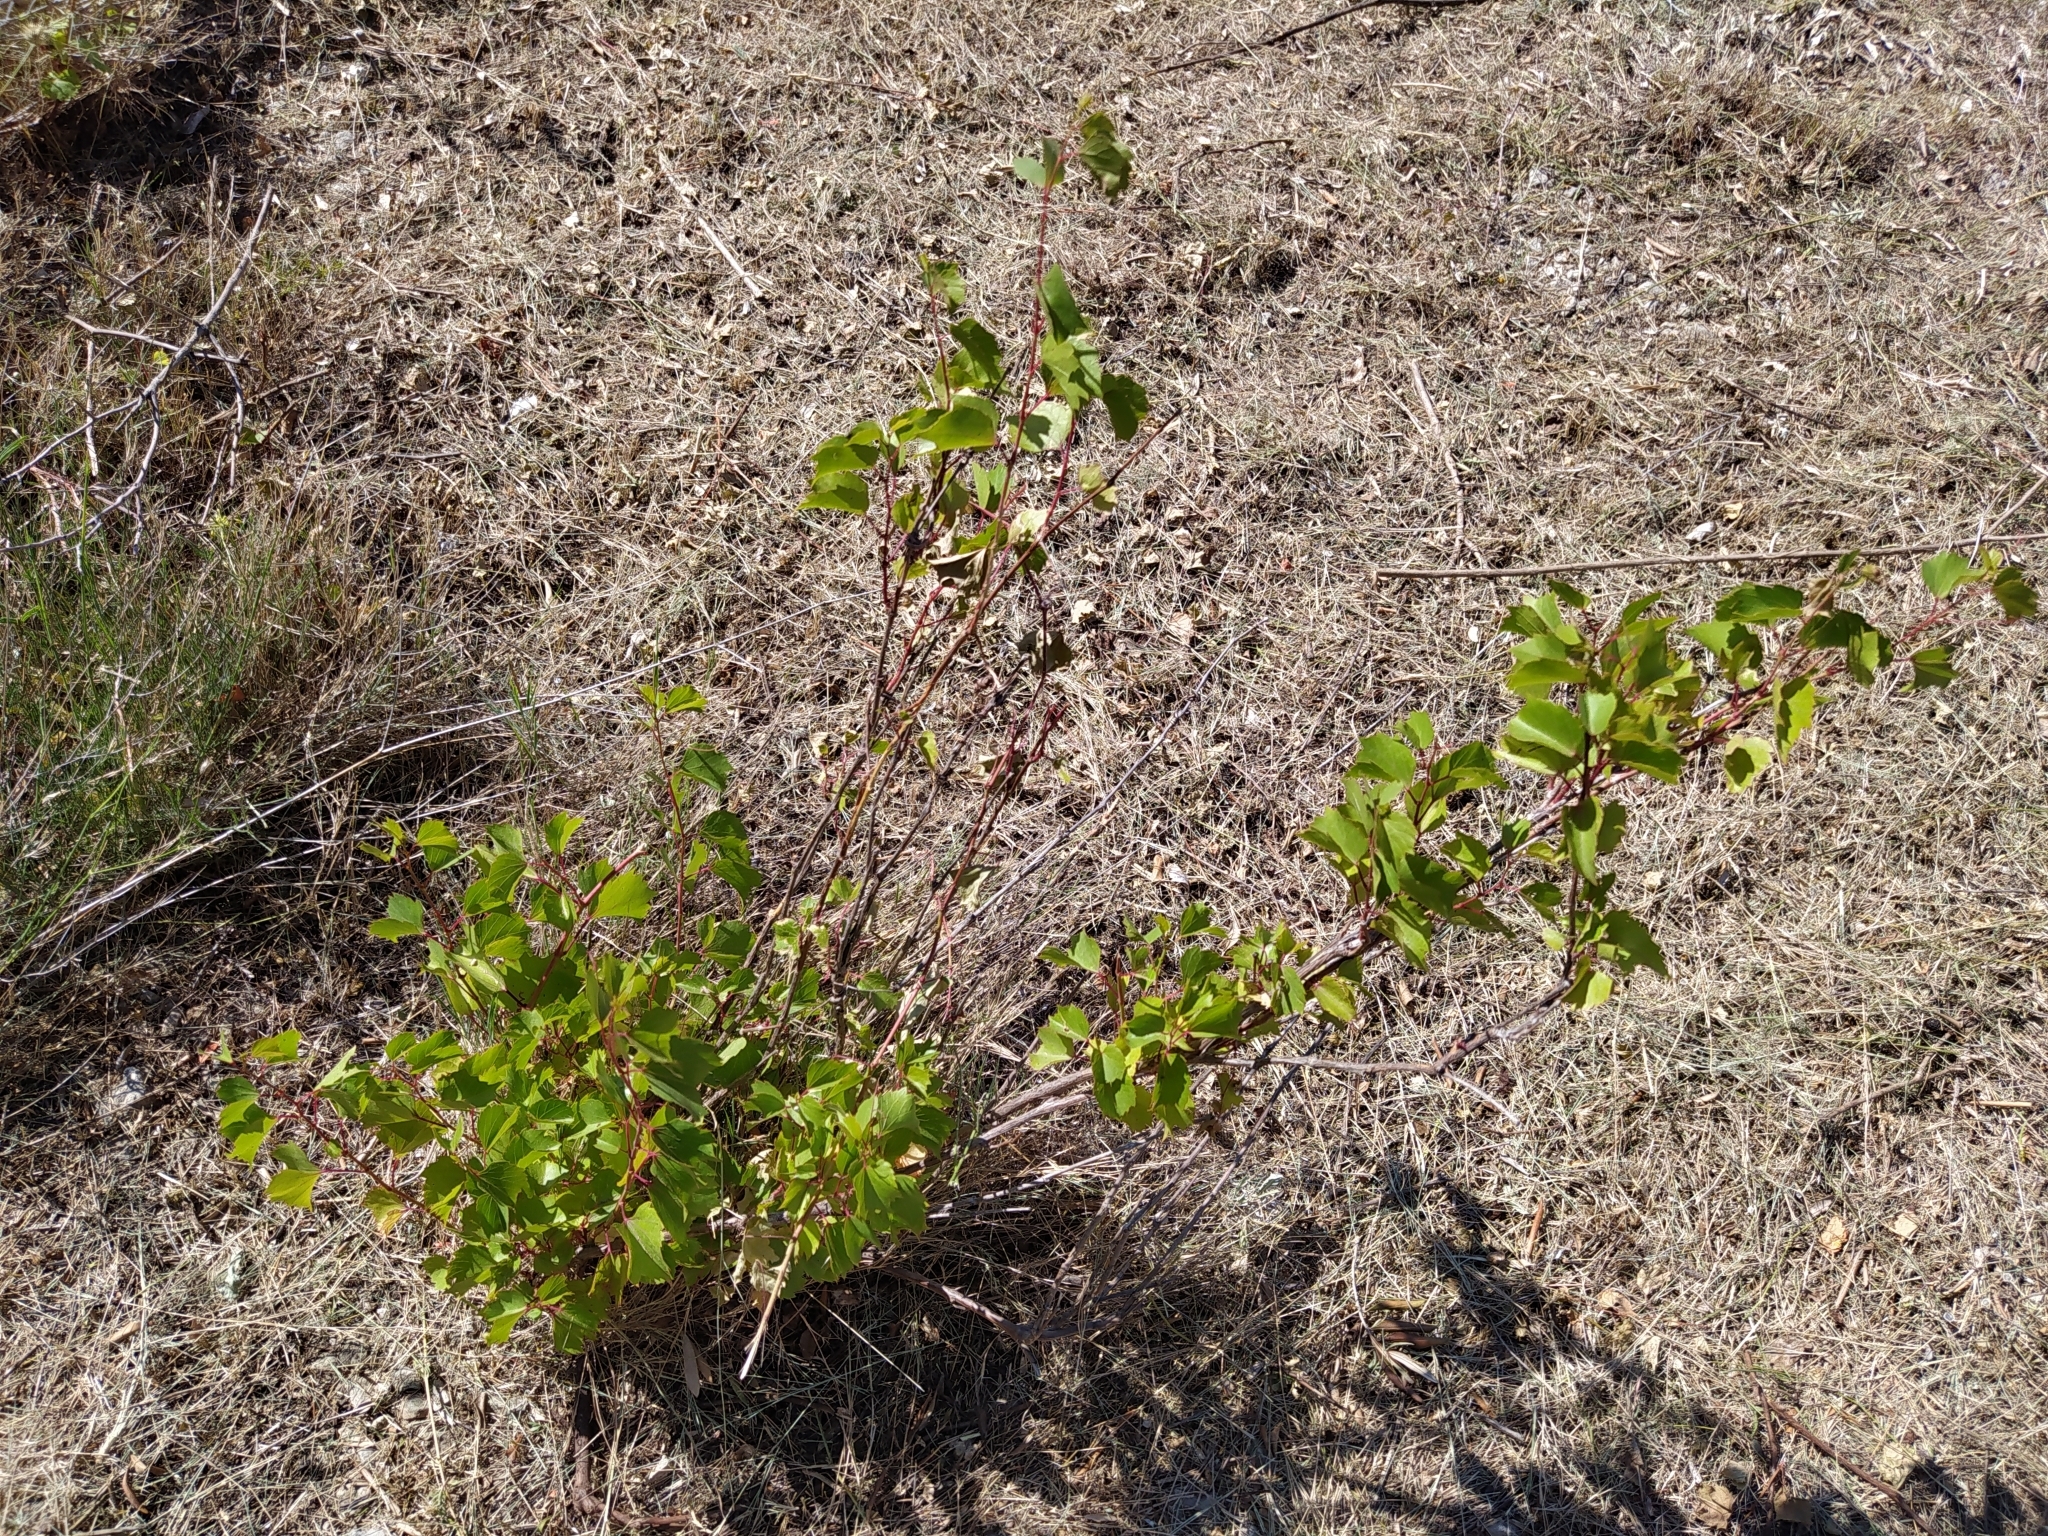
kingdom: Plantae
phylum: Tracheophyta
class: Magnoliopsida
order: Vitales
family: Vitaceae
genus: Vitis
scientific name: Vitis gmelinii
